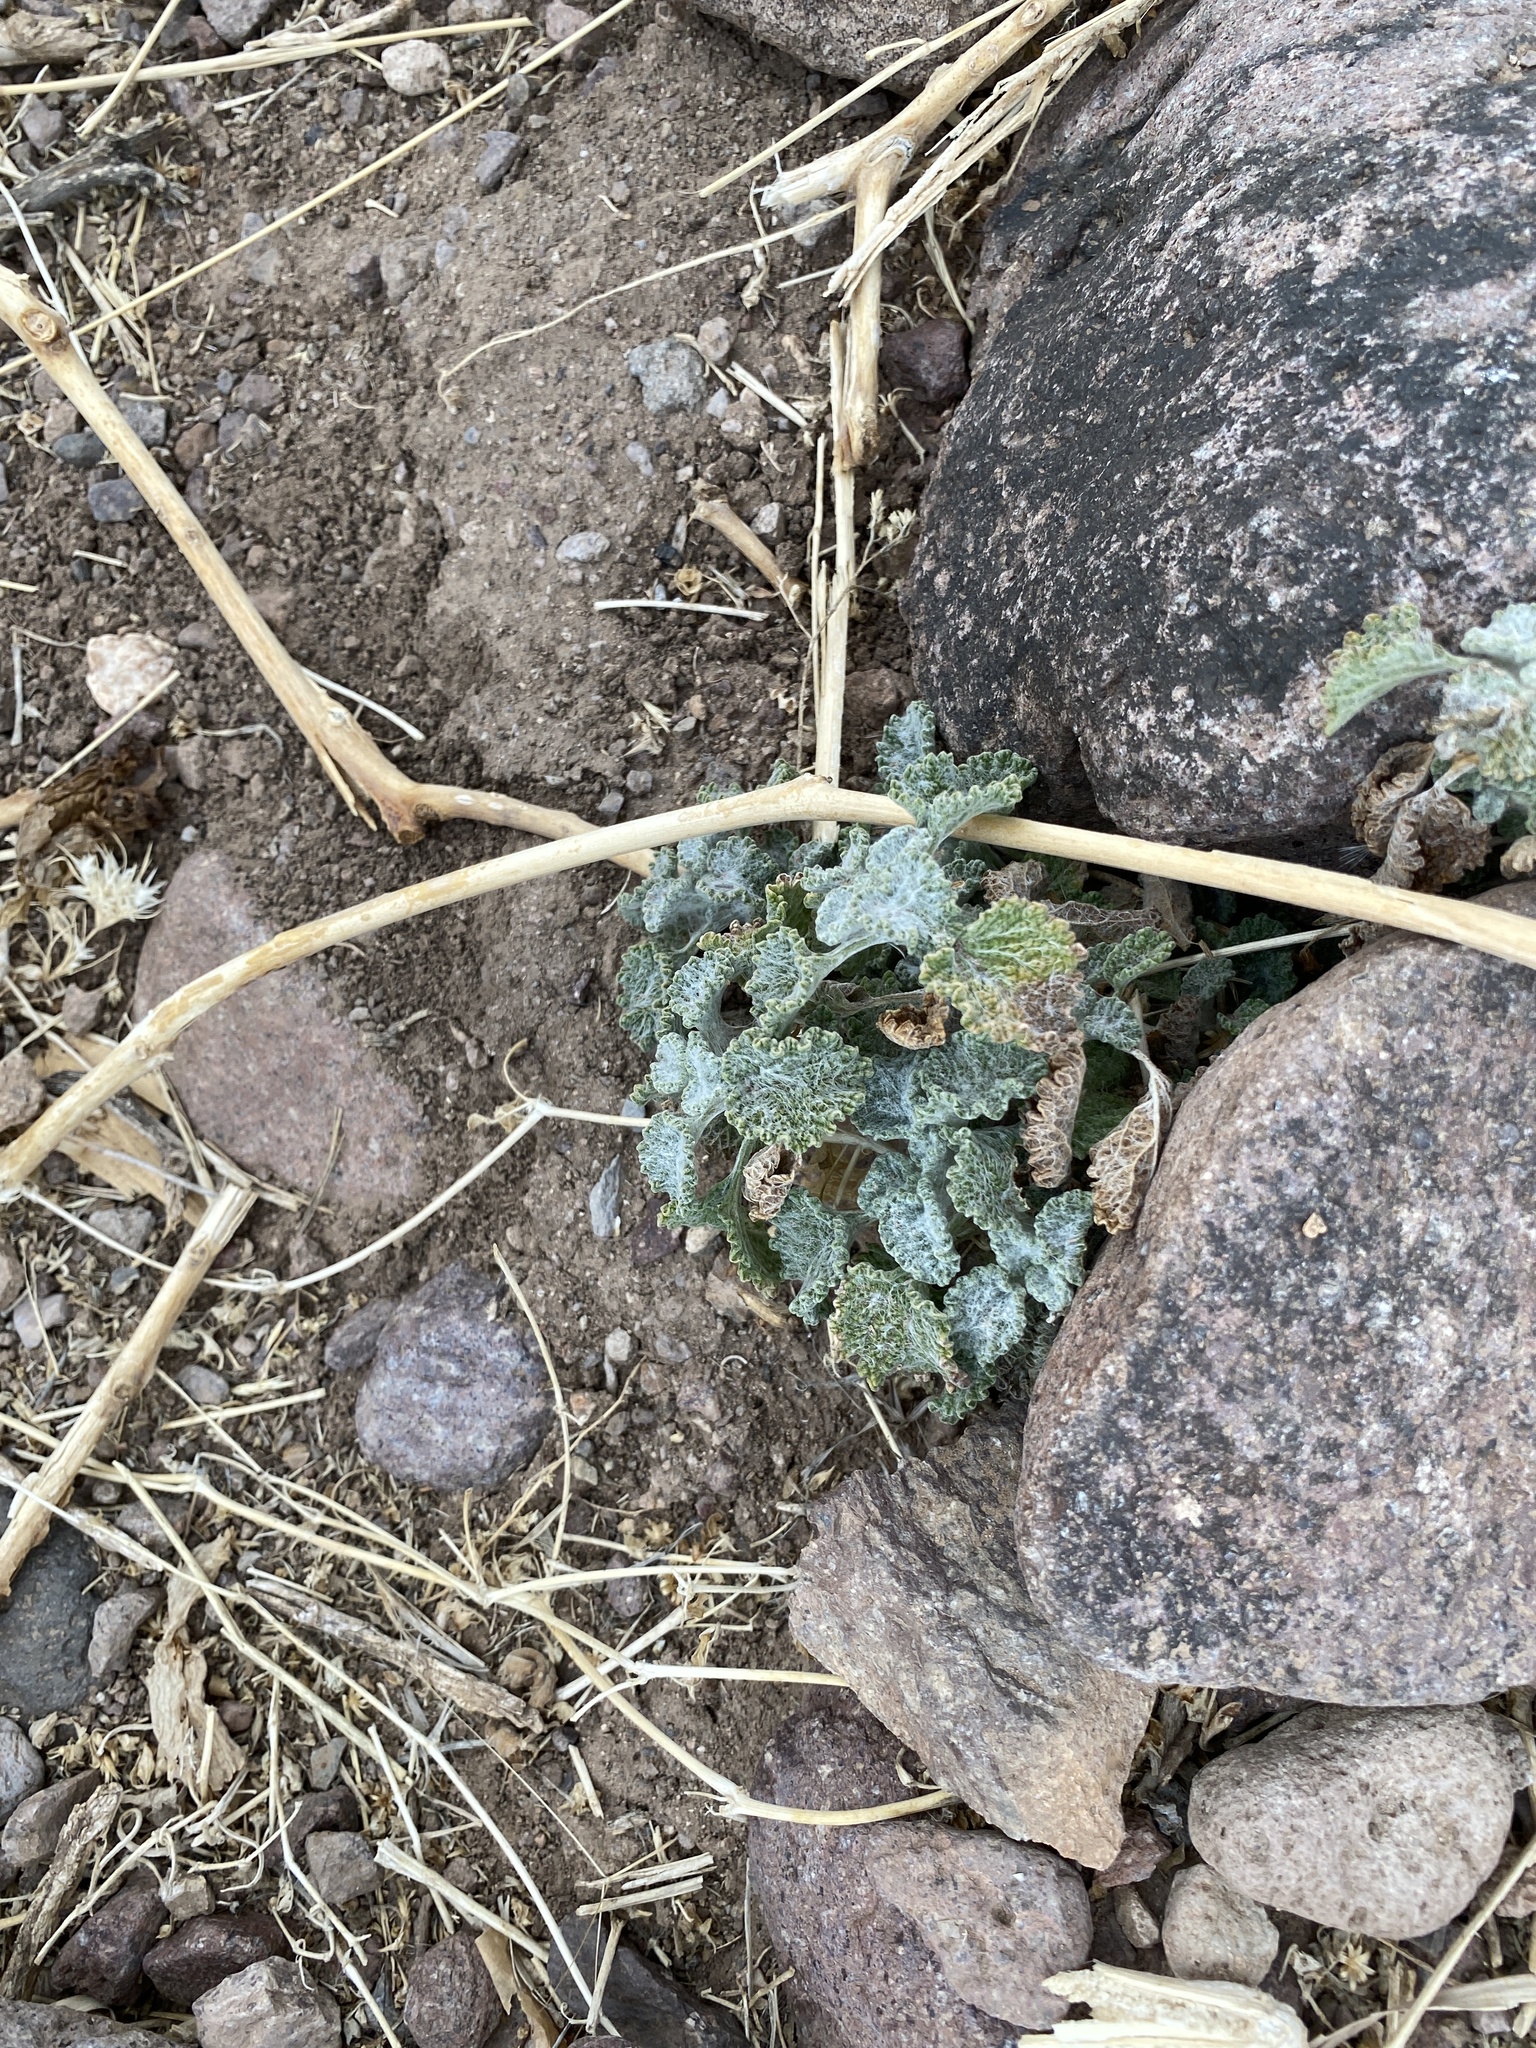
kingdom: Plantae
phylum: Tracheophyta
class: Magnoliopsida
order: Lamiales
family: Lamiaceae
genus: Marrubium
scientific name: Marrubium vulgare
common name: Horehound
